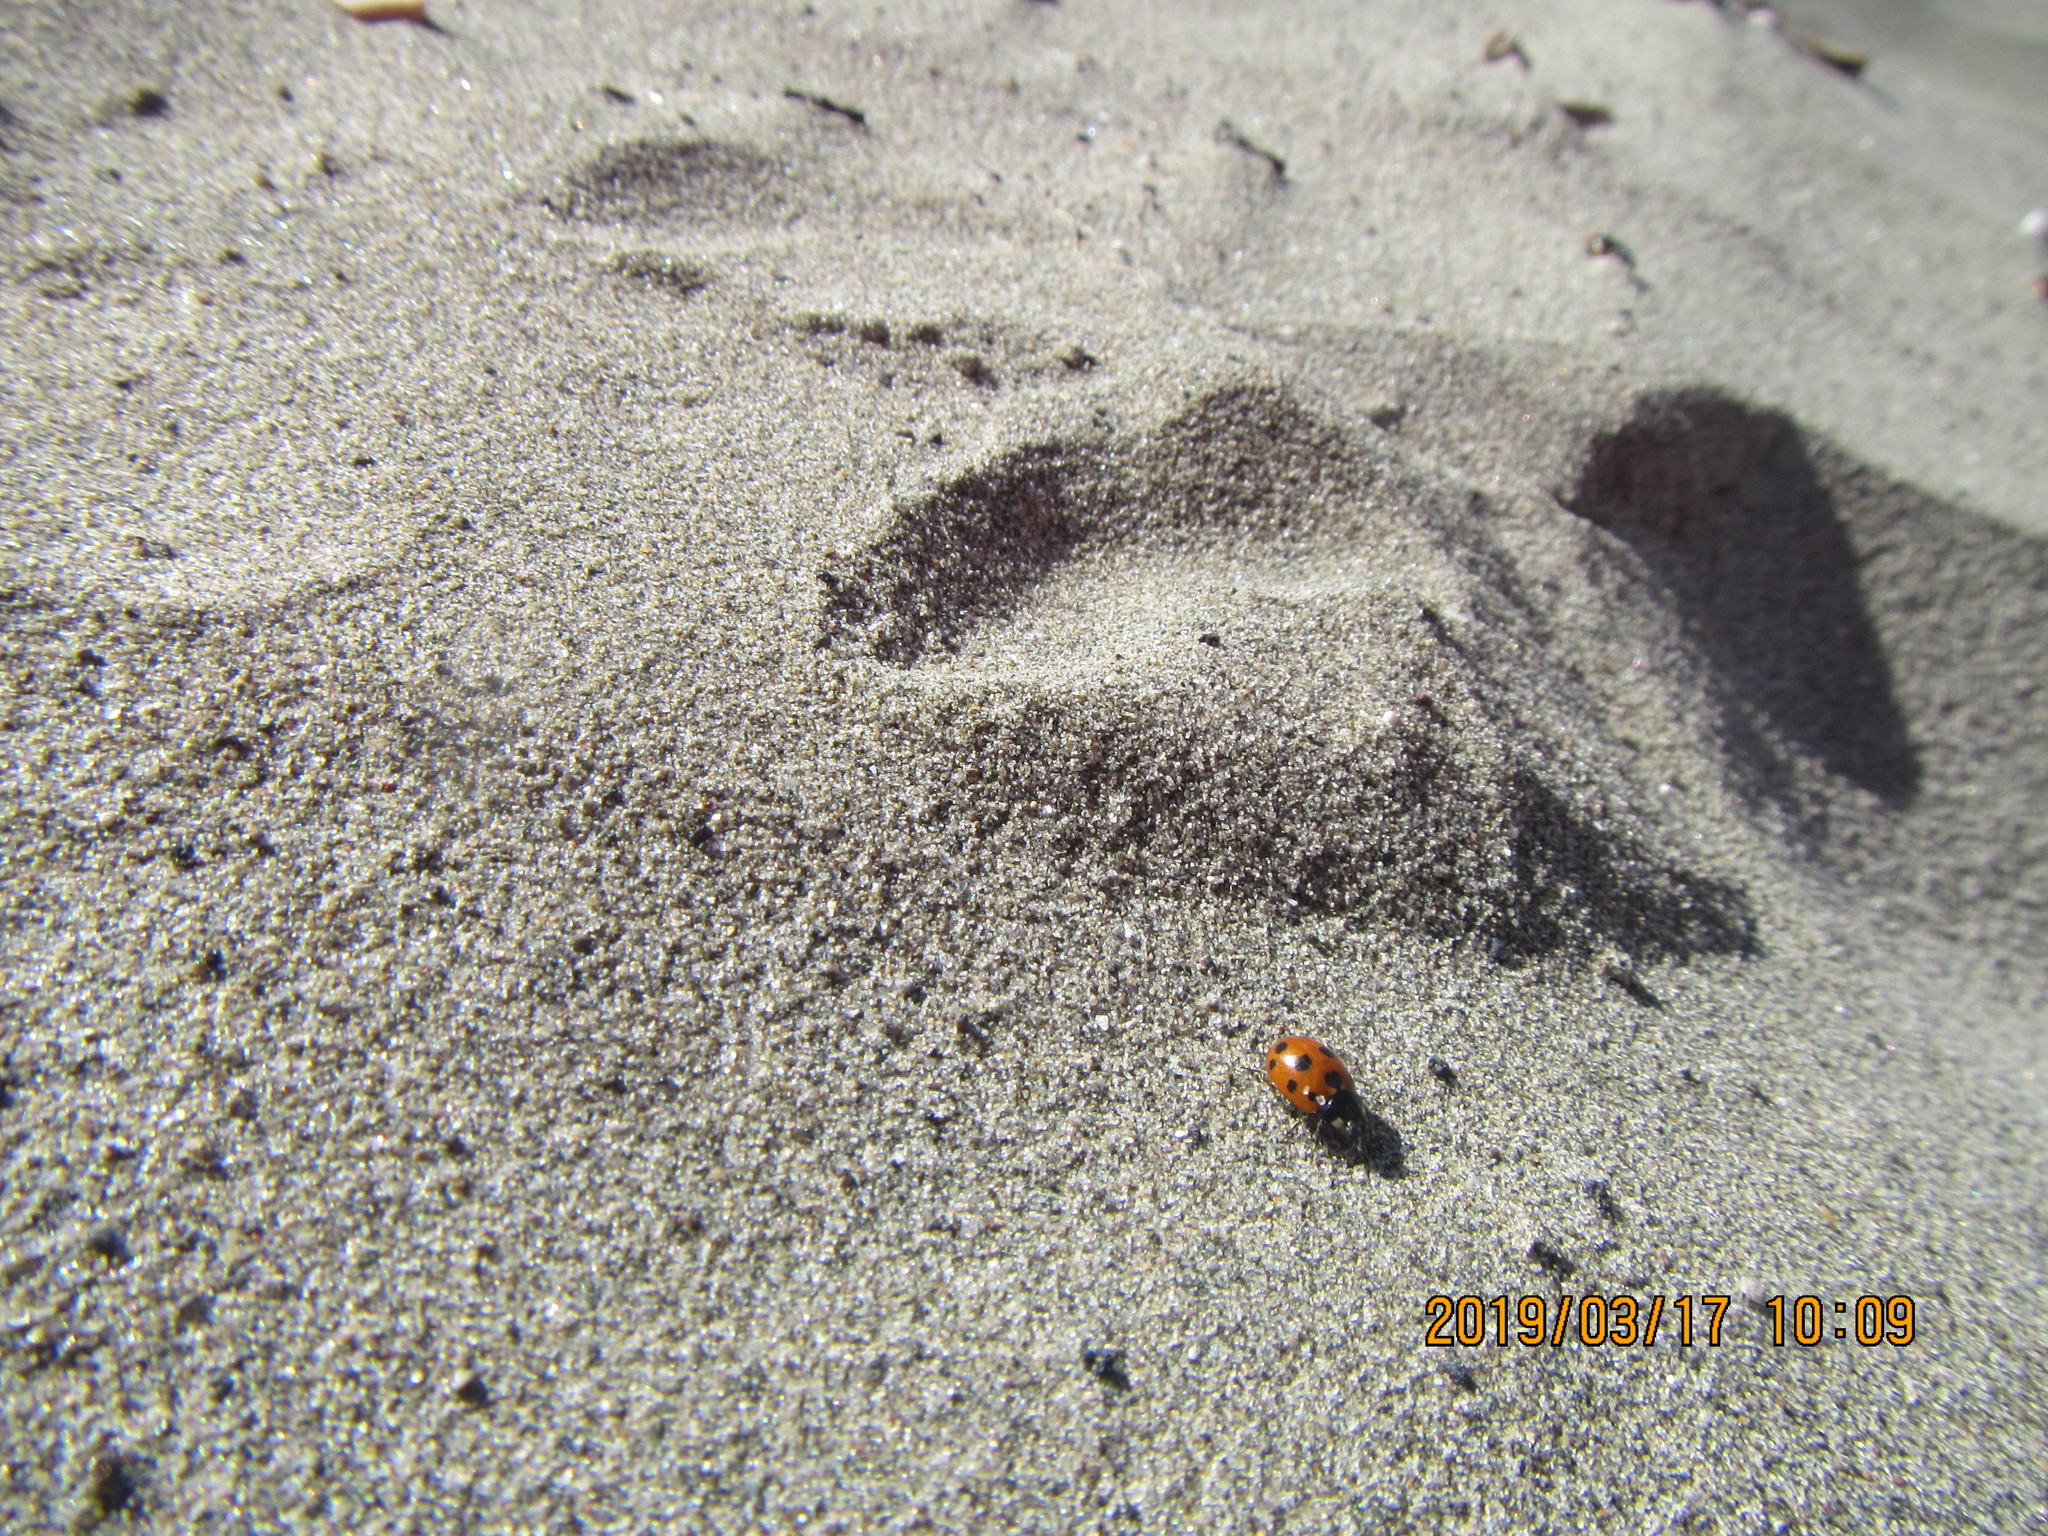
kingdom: Animalia
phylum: Arthropoda
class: Insecta
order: Coleoptera
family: Coccinellidae
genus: Coccinella
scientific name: Coccinella undecimpunctata
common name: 11-spot ladybird
